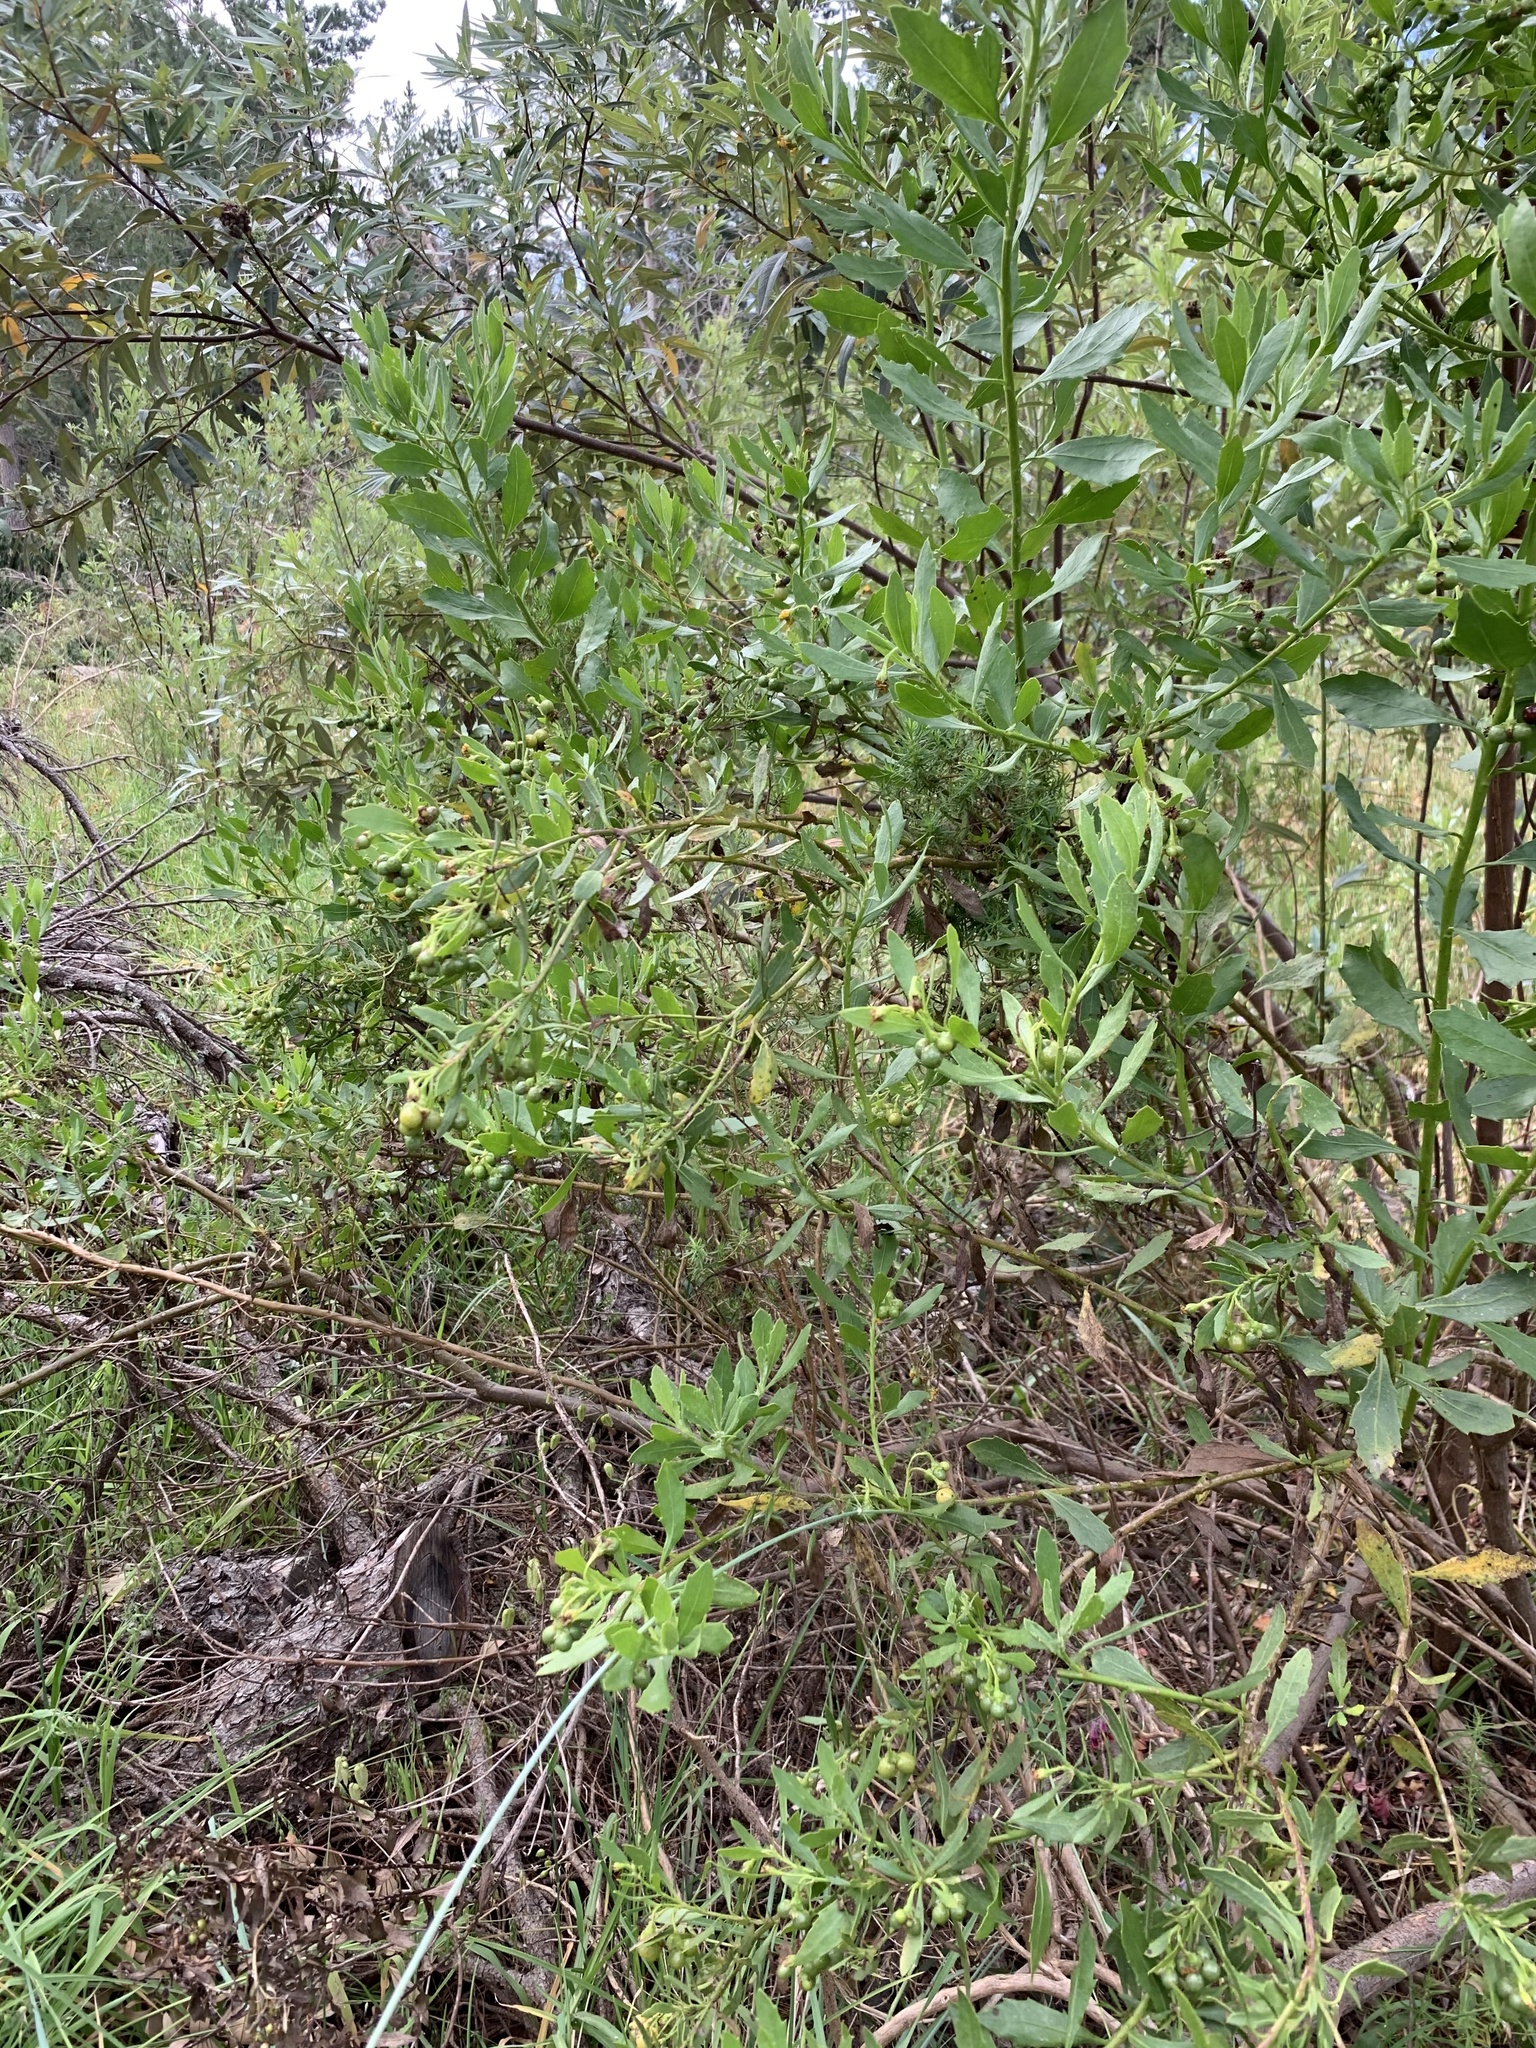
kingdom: Plantae
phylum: Tracheophyta
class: Magnoliopsida
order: Asterales
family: Asteraceae
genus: Osteospermum
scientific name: Osteospermum moniliferum
